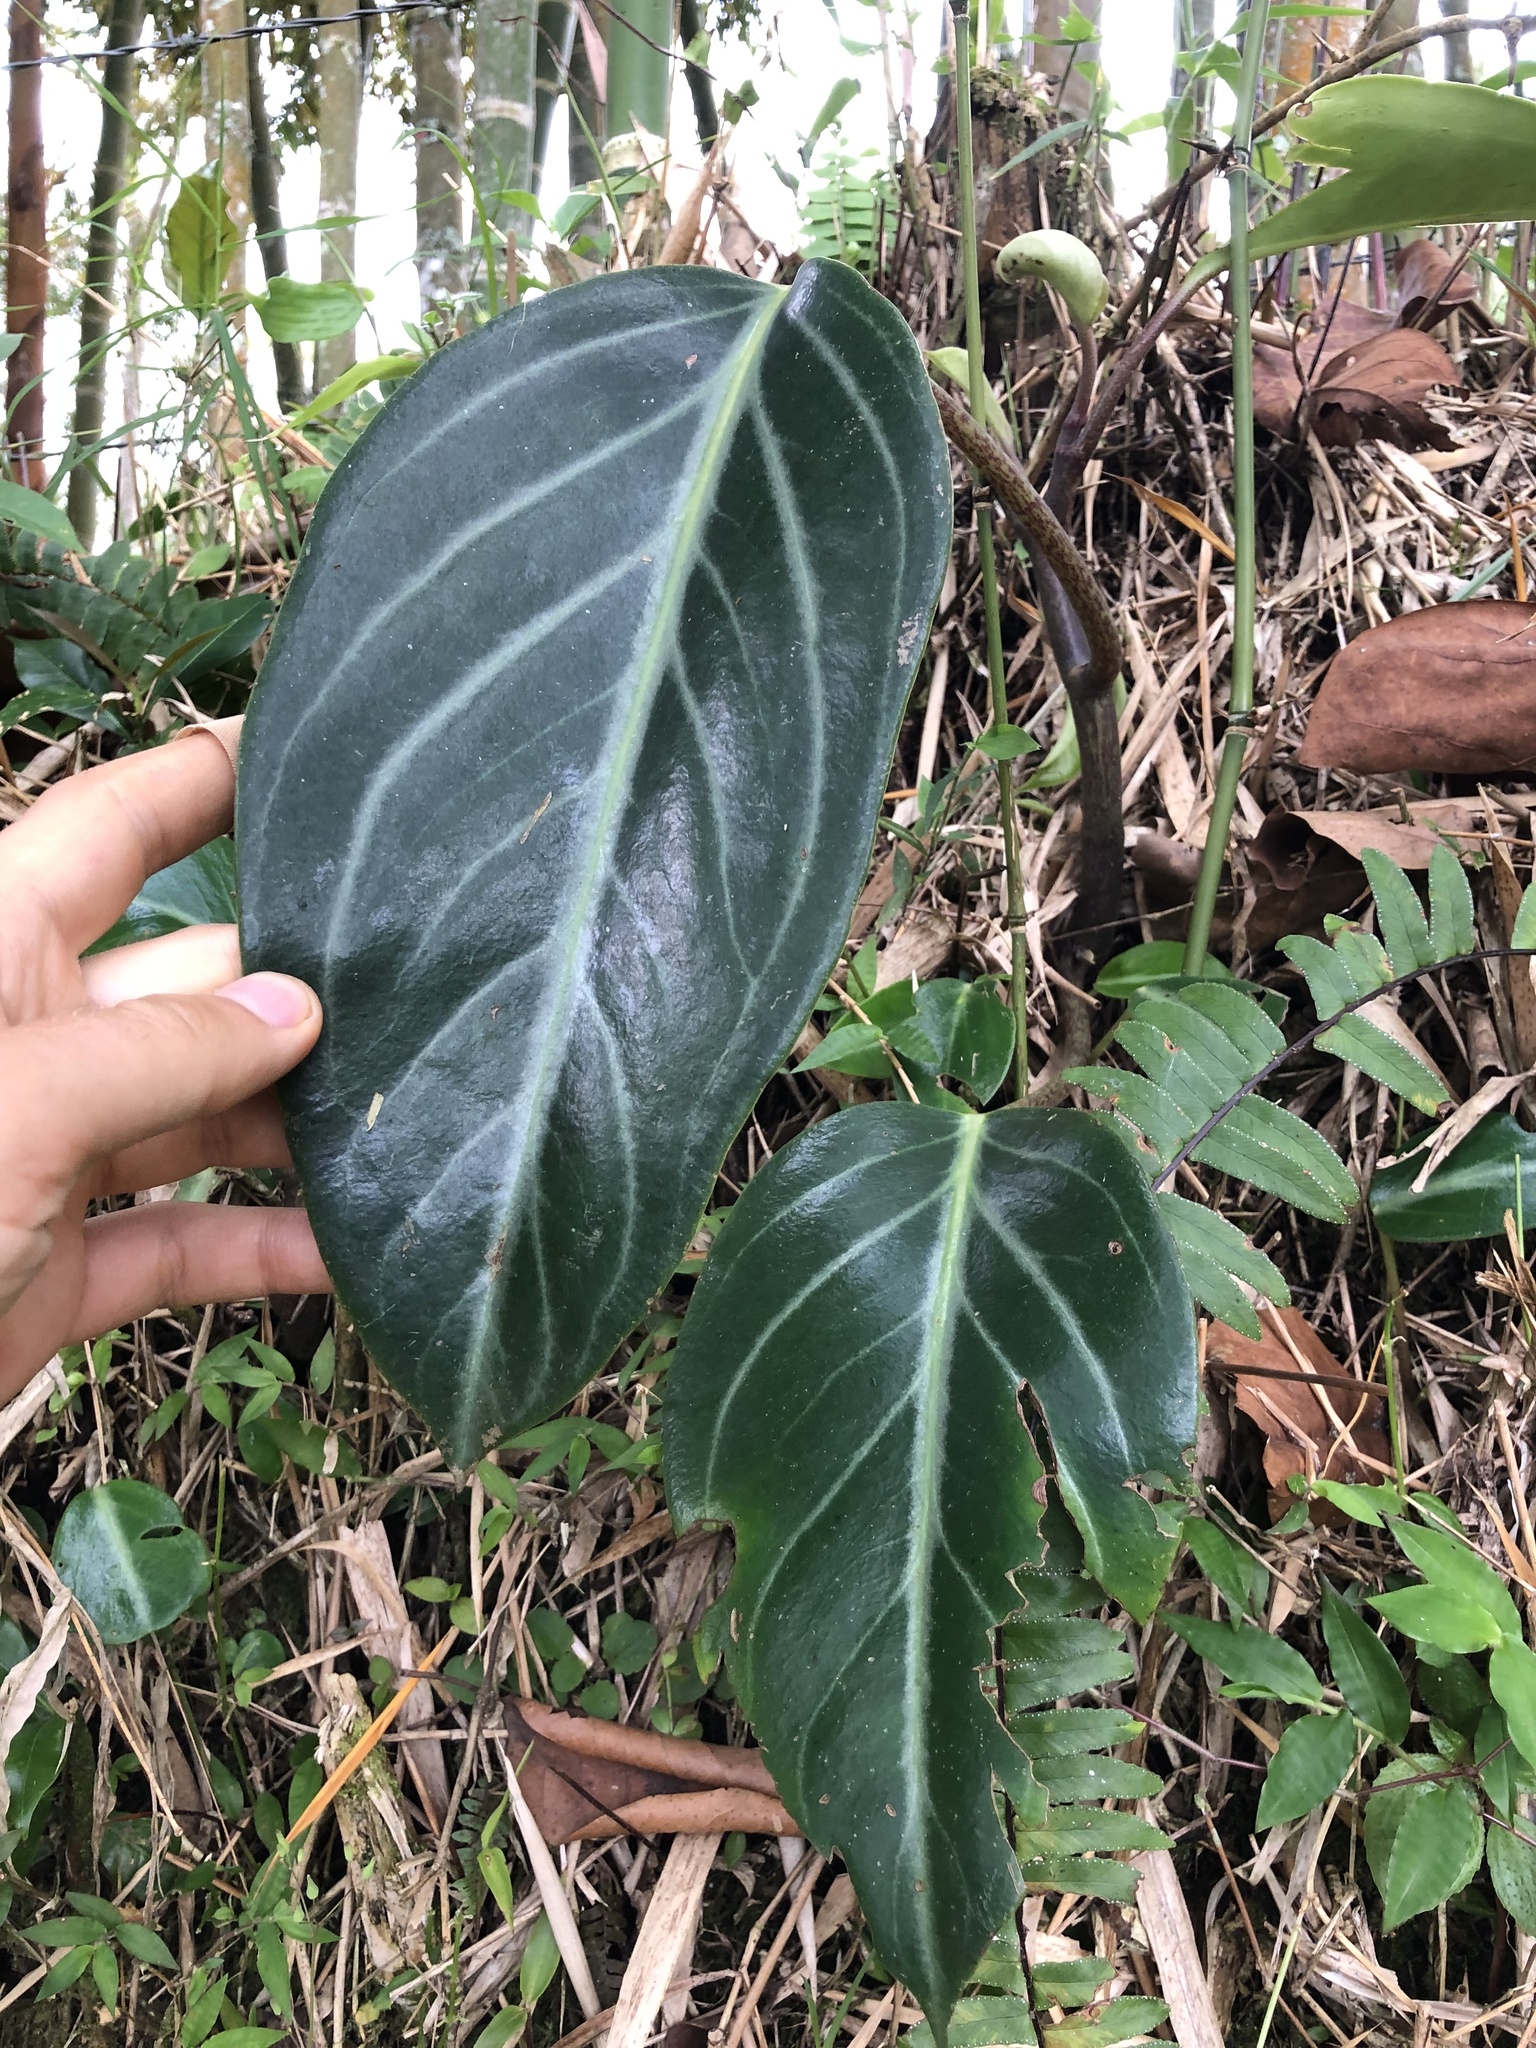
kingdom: Plantae
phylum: Tracheophyta
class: Magnoliopsida
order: Piperales
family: Piperaceae
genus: Peperomia
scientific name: Peperomia maculosa
